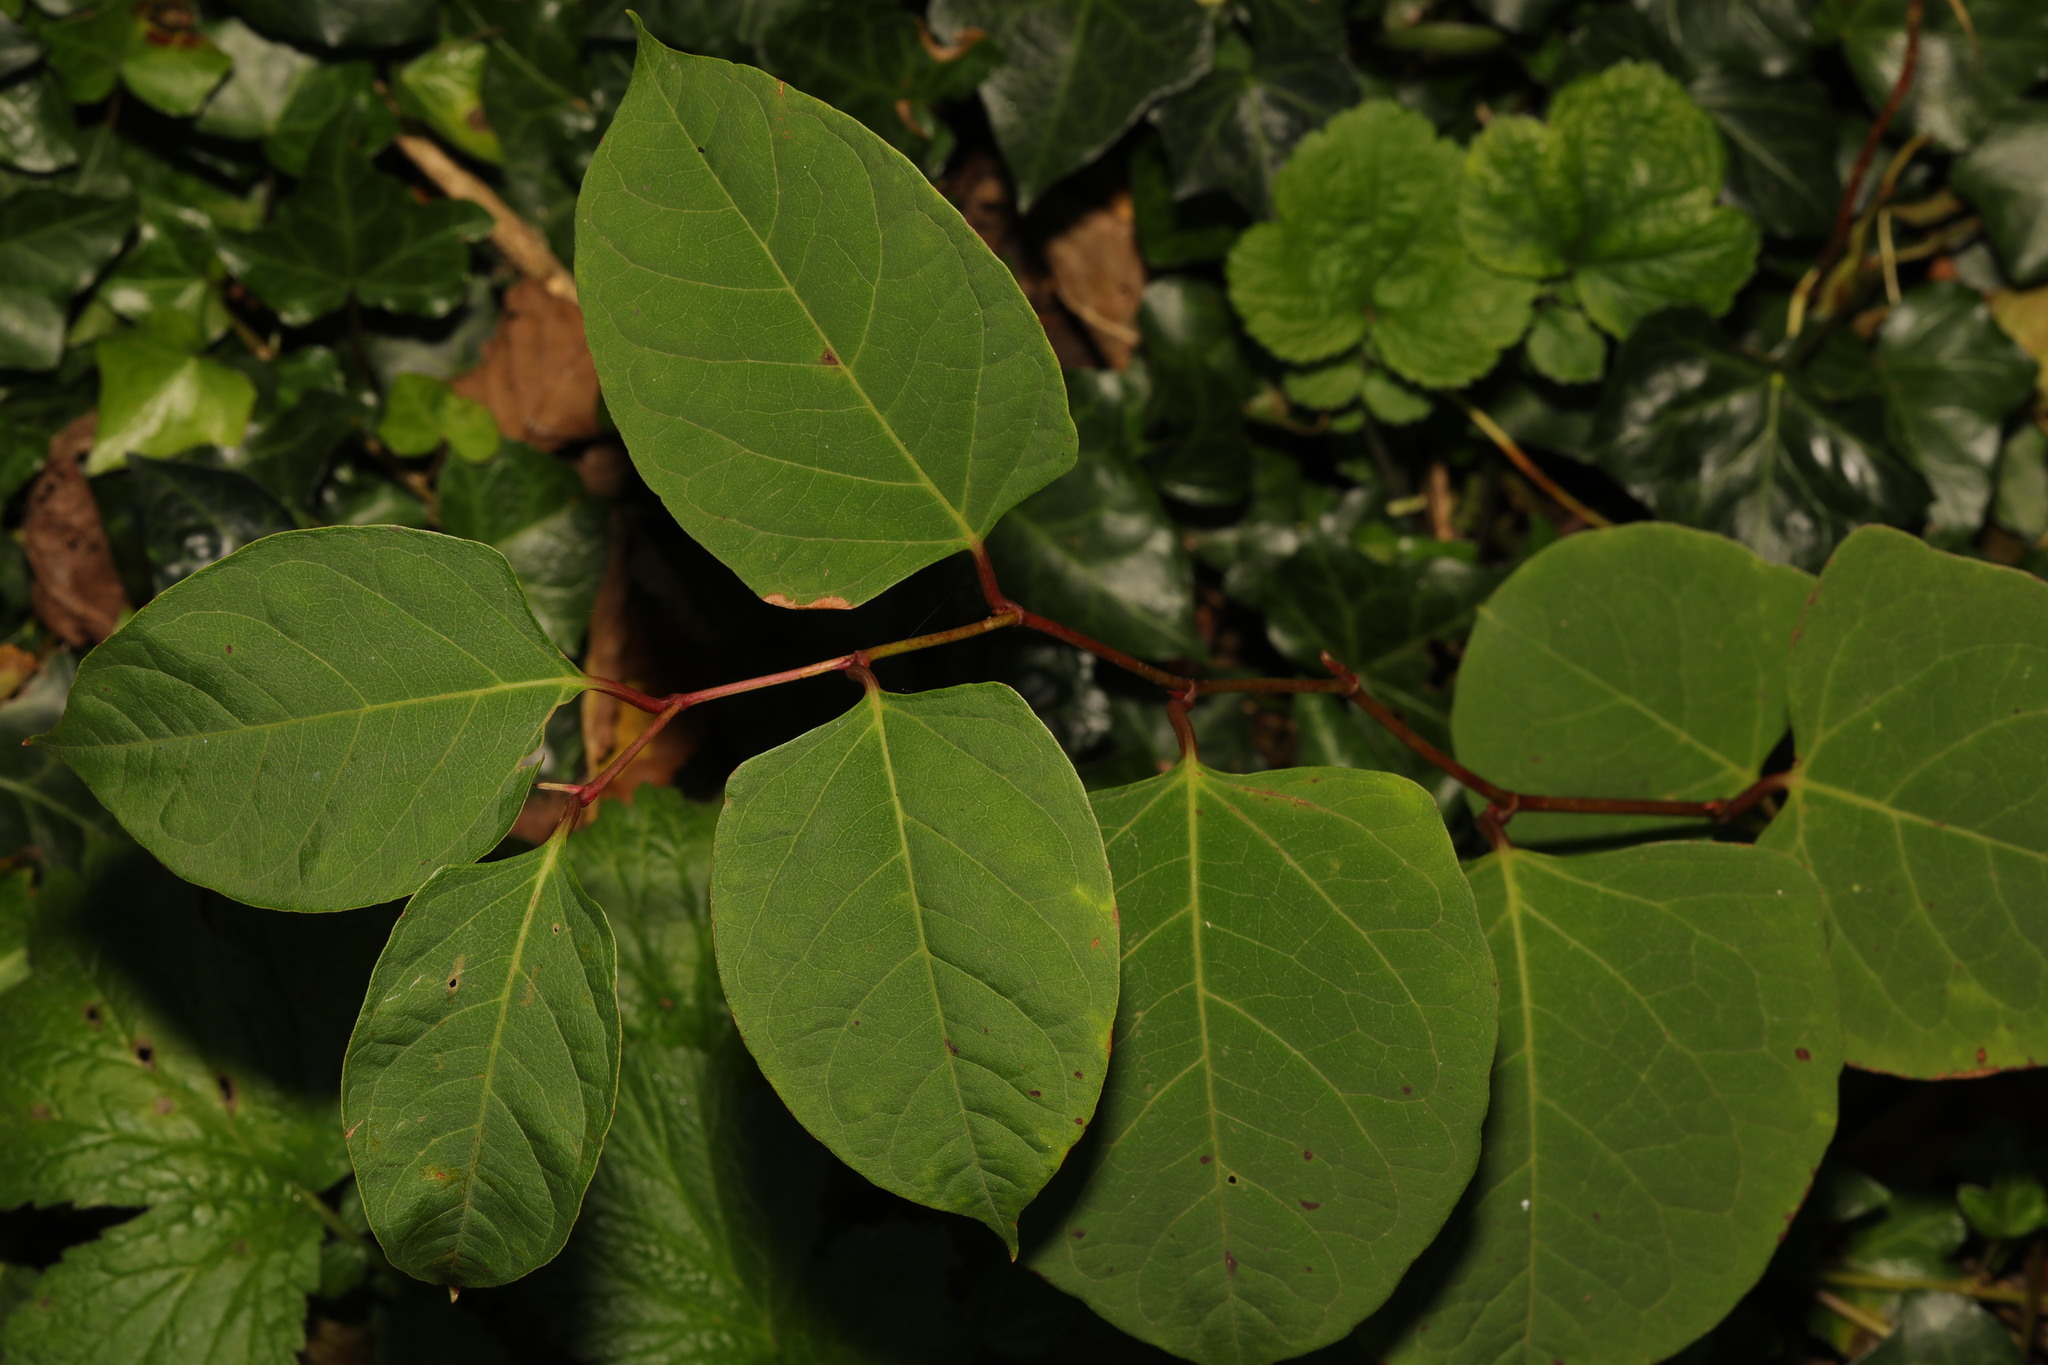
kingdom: Plantae
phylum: Tracheophyta
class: Magnoliopsida
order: Caryophyllales
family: Polygonaceae
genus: Reynoutria
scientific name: Reynoutria japonica
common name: Japanese knotweed
